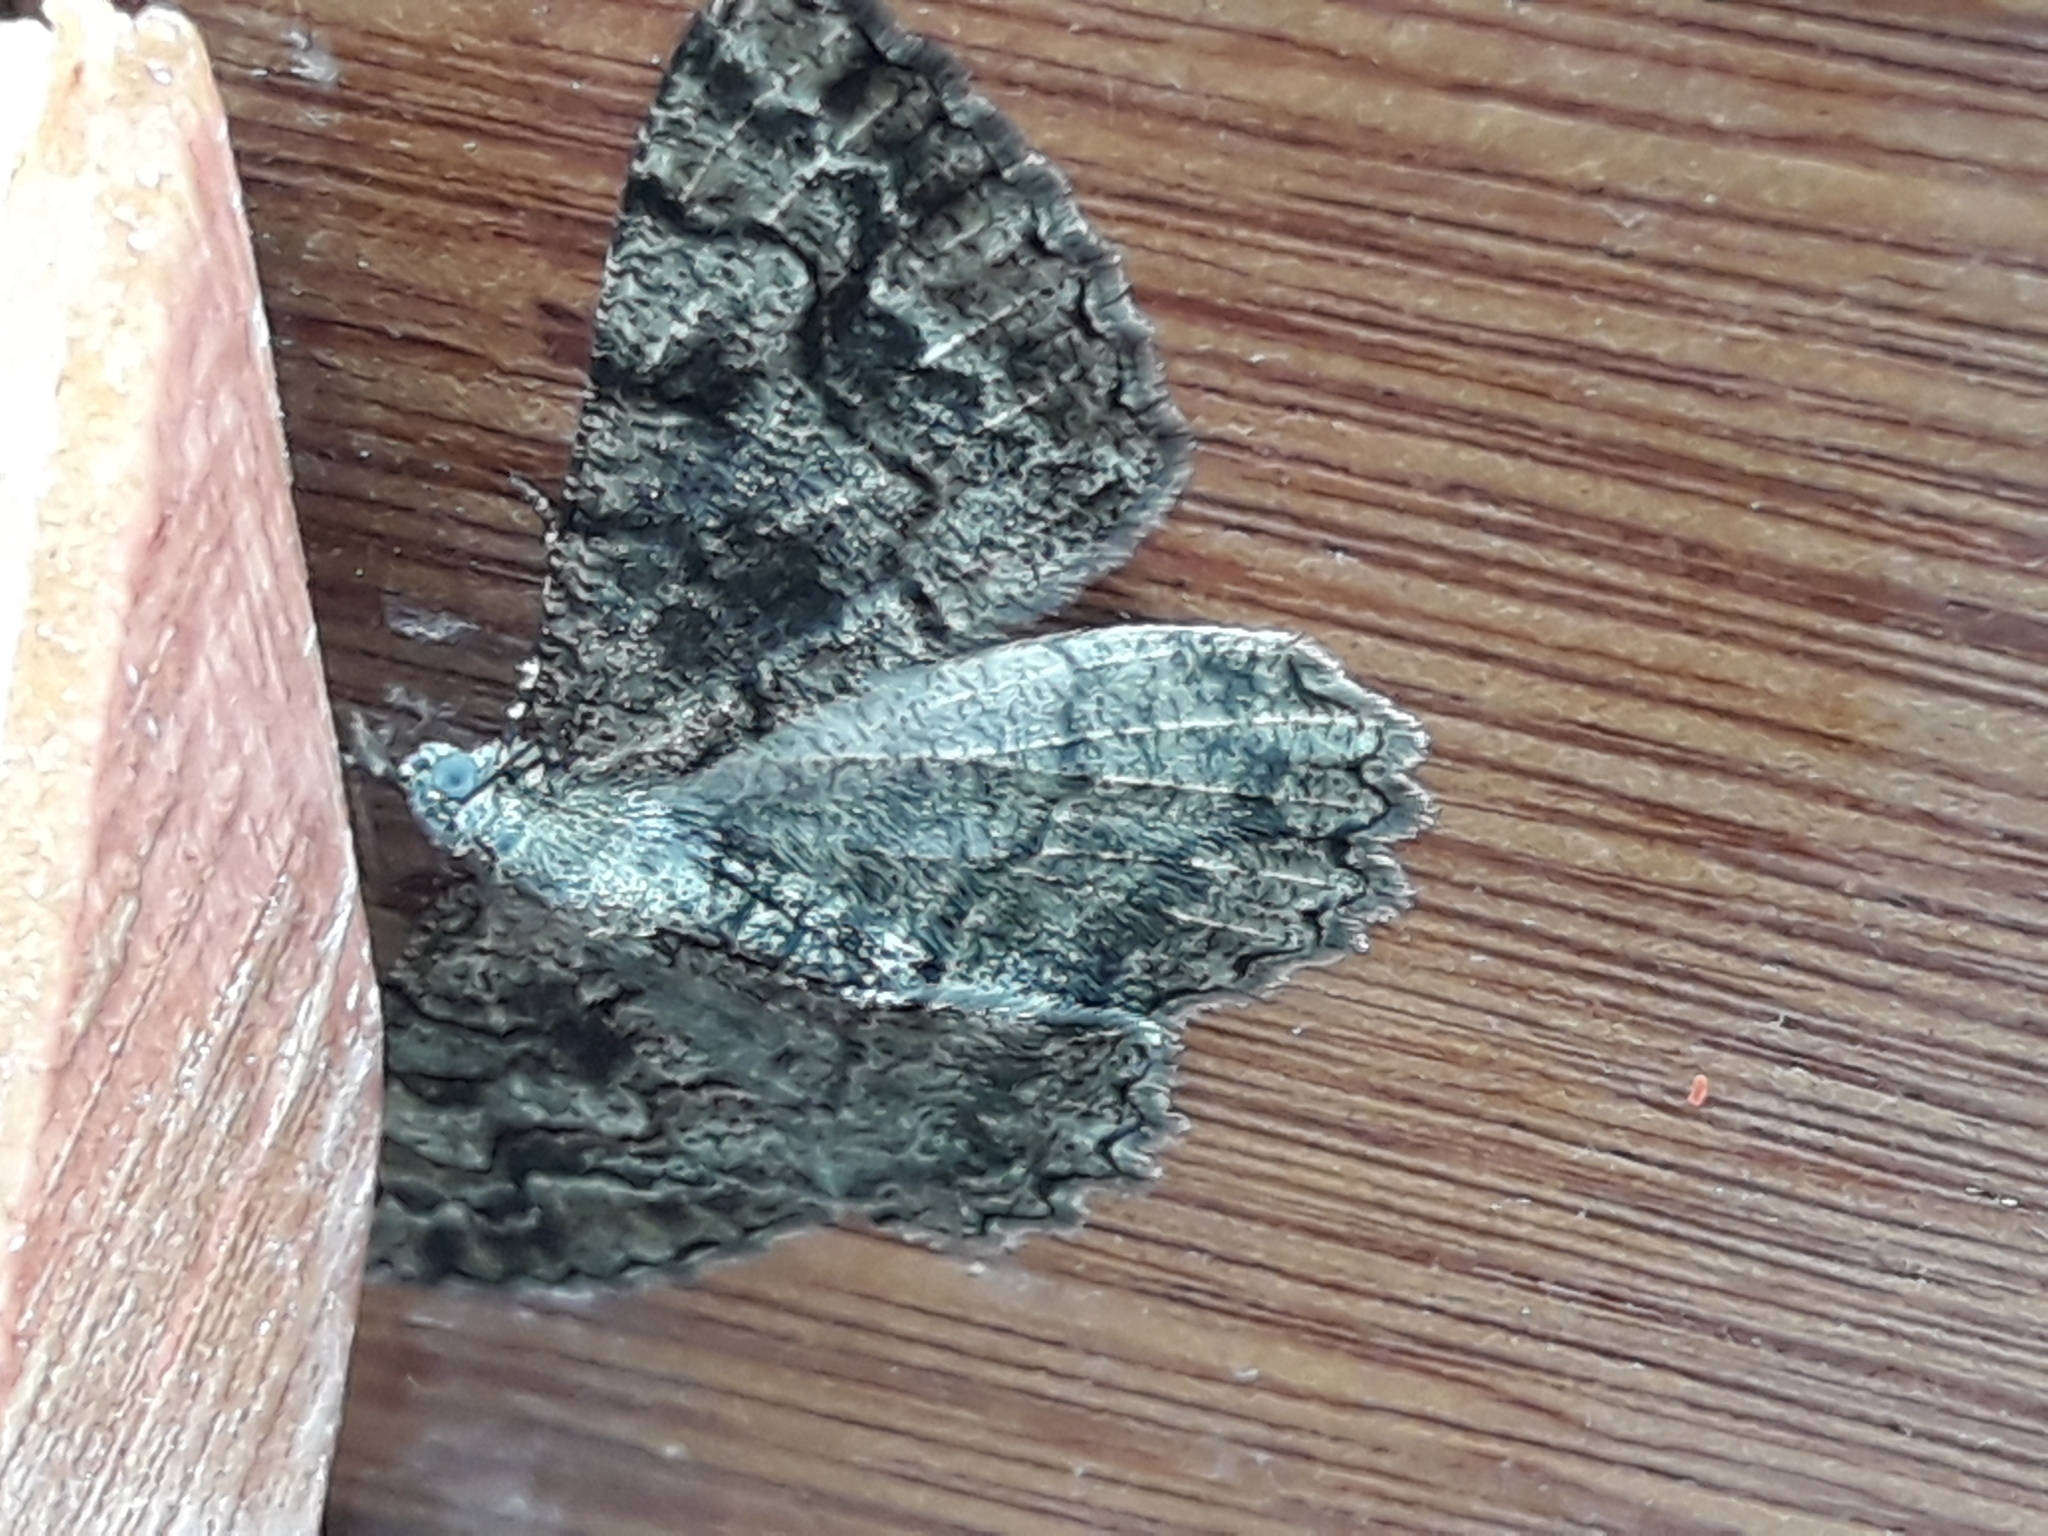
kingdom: Animalia
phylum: Arthropoda
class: Insecta
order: Lepidoptera
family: Geometridae
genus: Alcis
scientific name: Alcis repandata
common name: Mottled beauty
